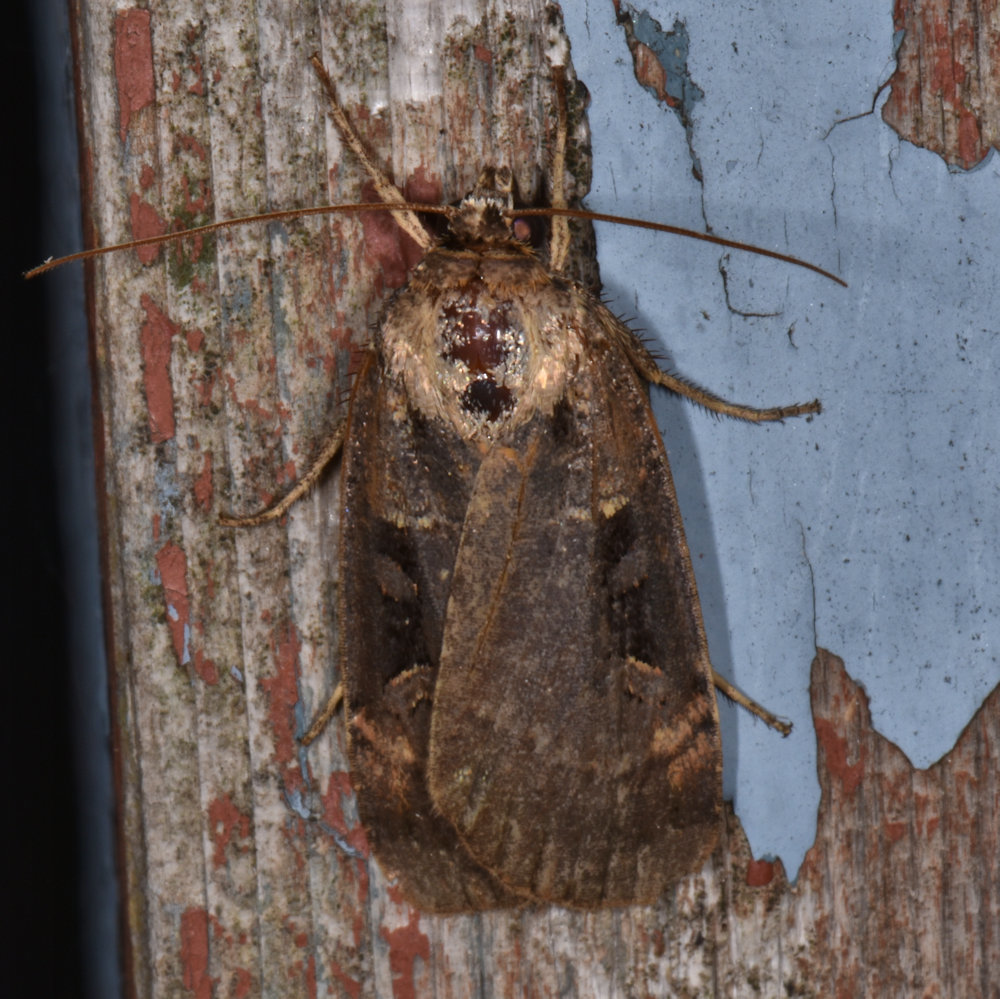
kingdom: Animalia
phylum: Arthropoda
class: Insecta
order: Lepidoptera
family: Noctuidae
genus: Pseudohermonassa
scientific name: Pseudohermonassa bicarnea
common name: Pink spotted dart
